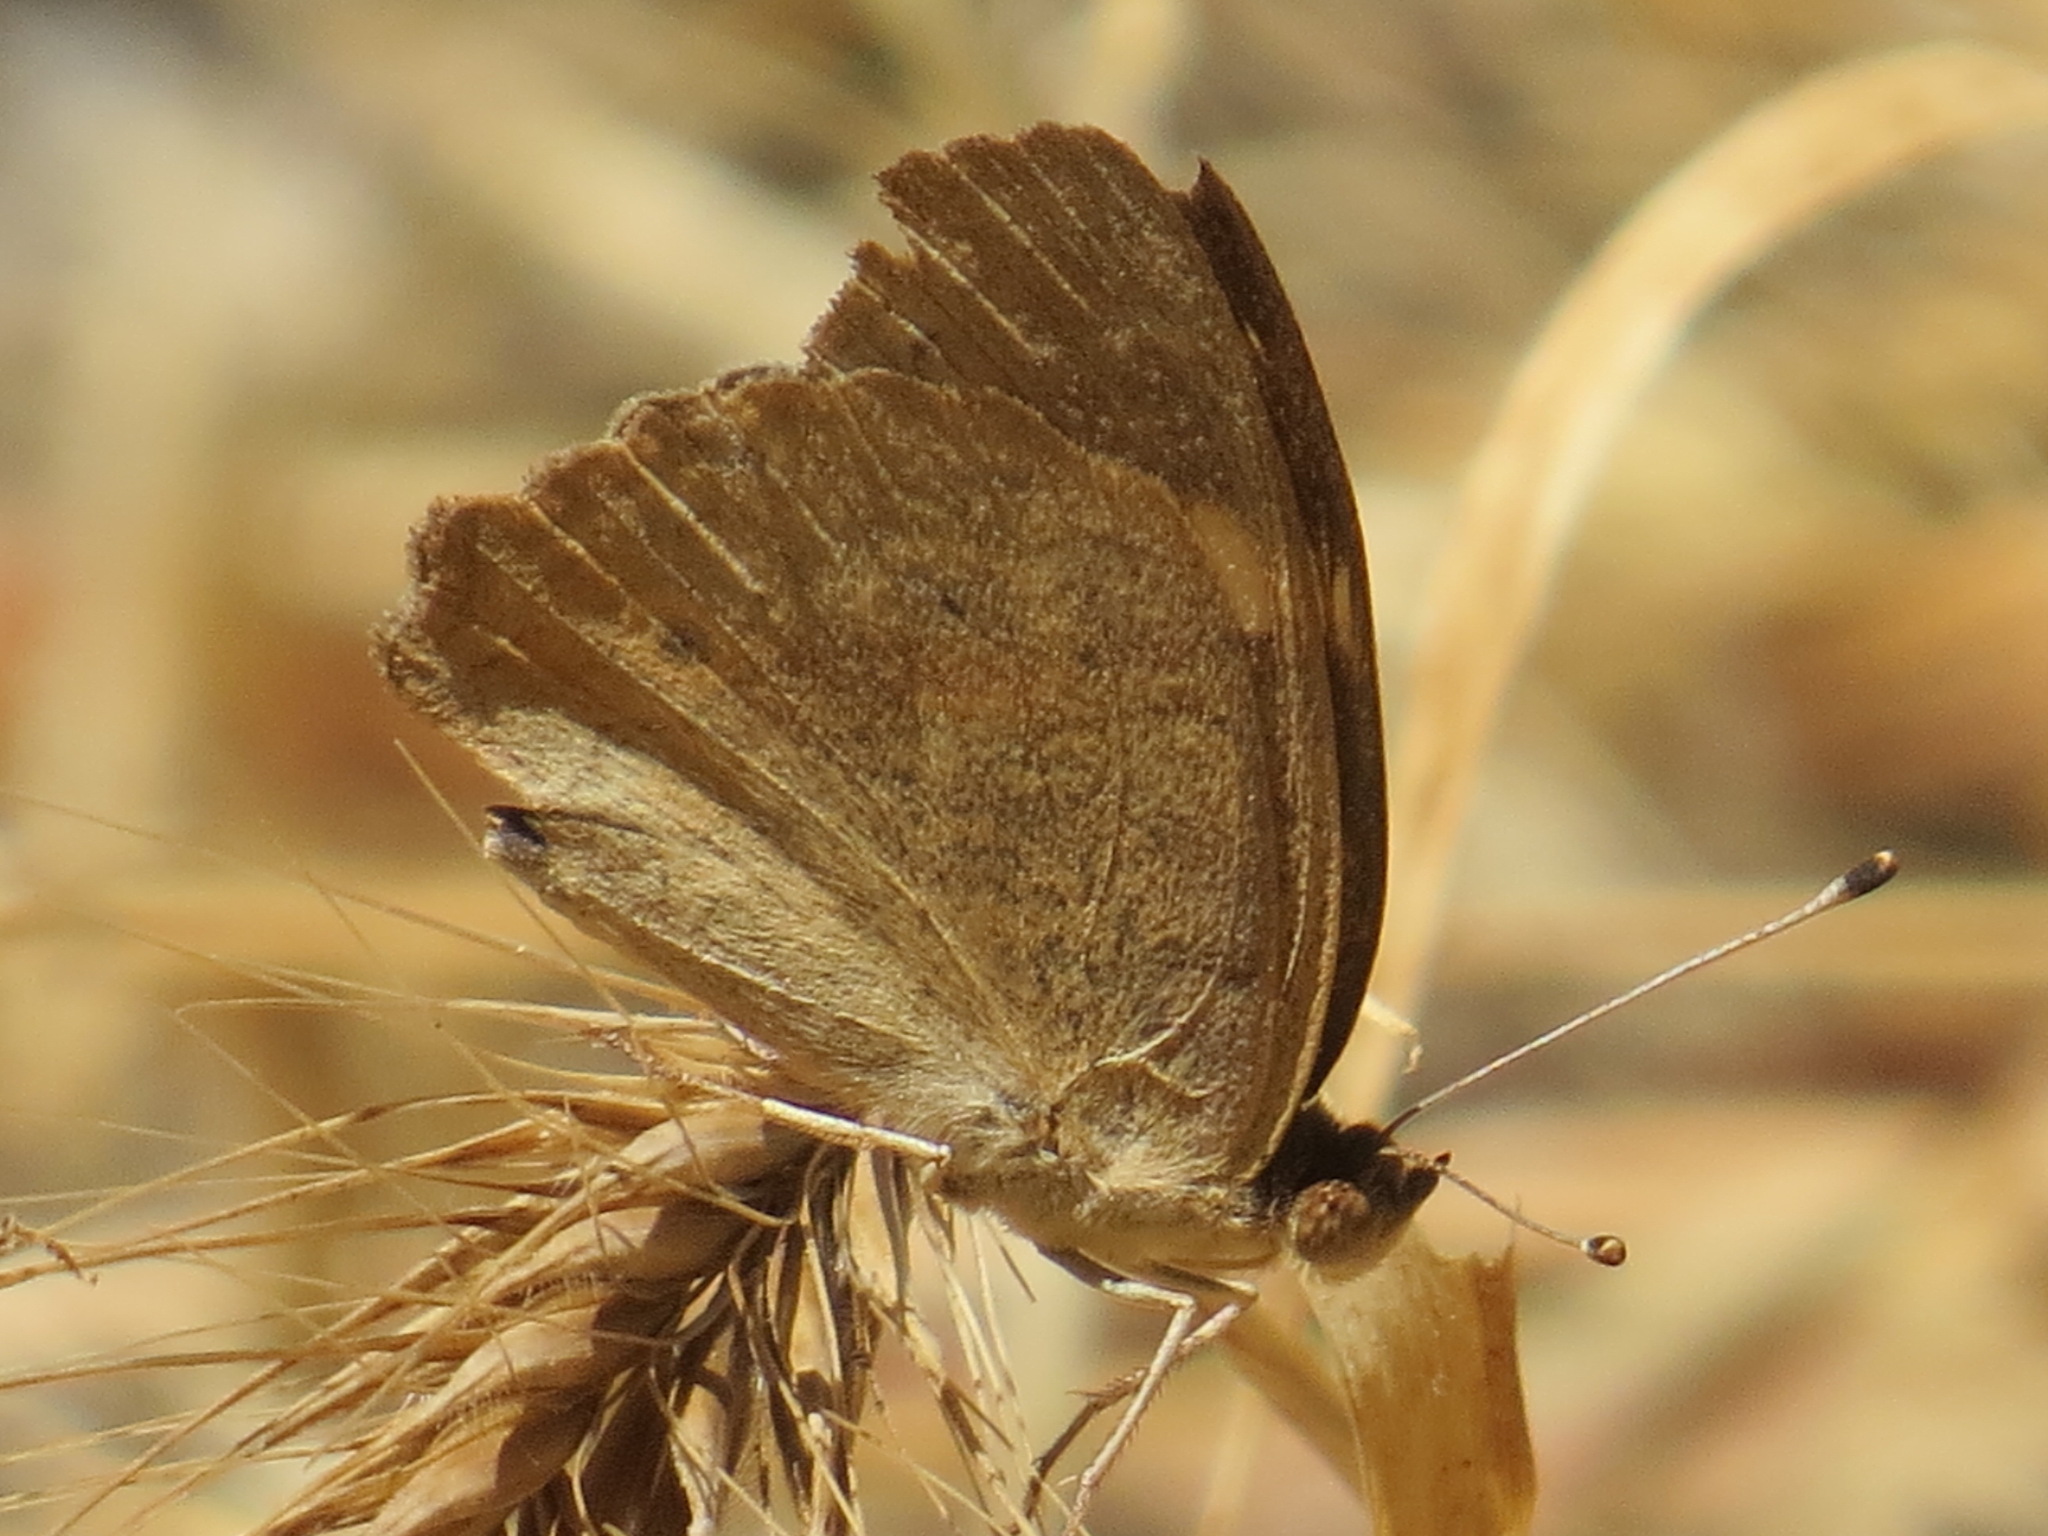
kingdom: Animalia
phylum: Arthropoda
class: Insecta
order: Lepidoptera
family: Nymphalidae
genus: Junonia
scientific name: Junonia grisea
